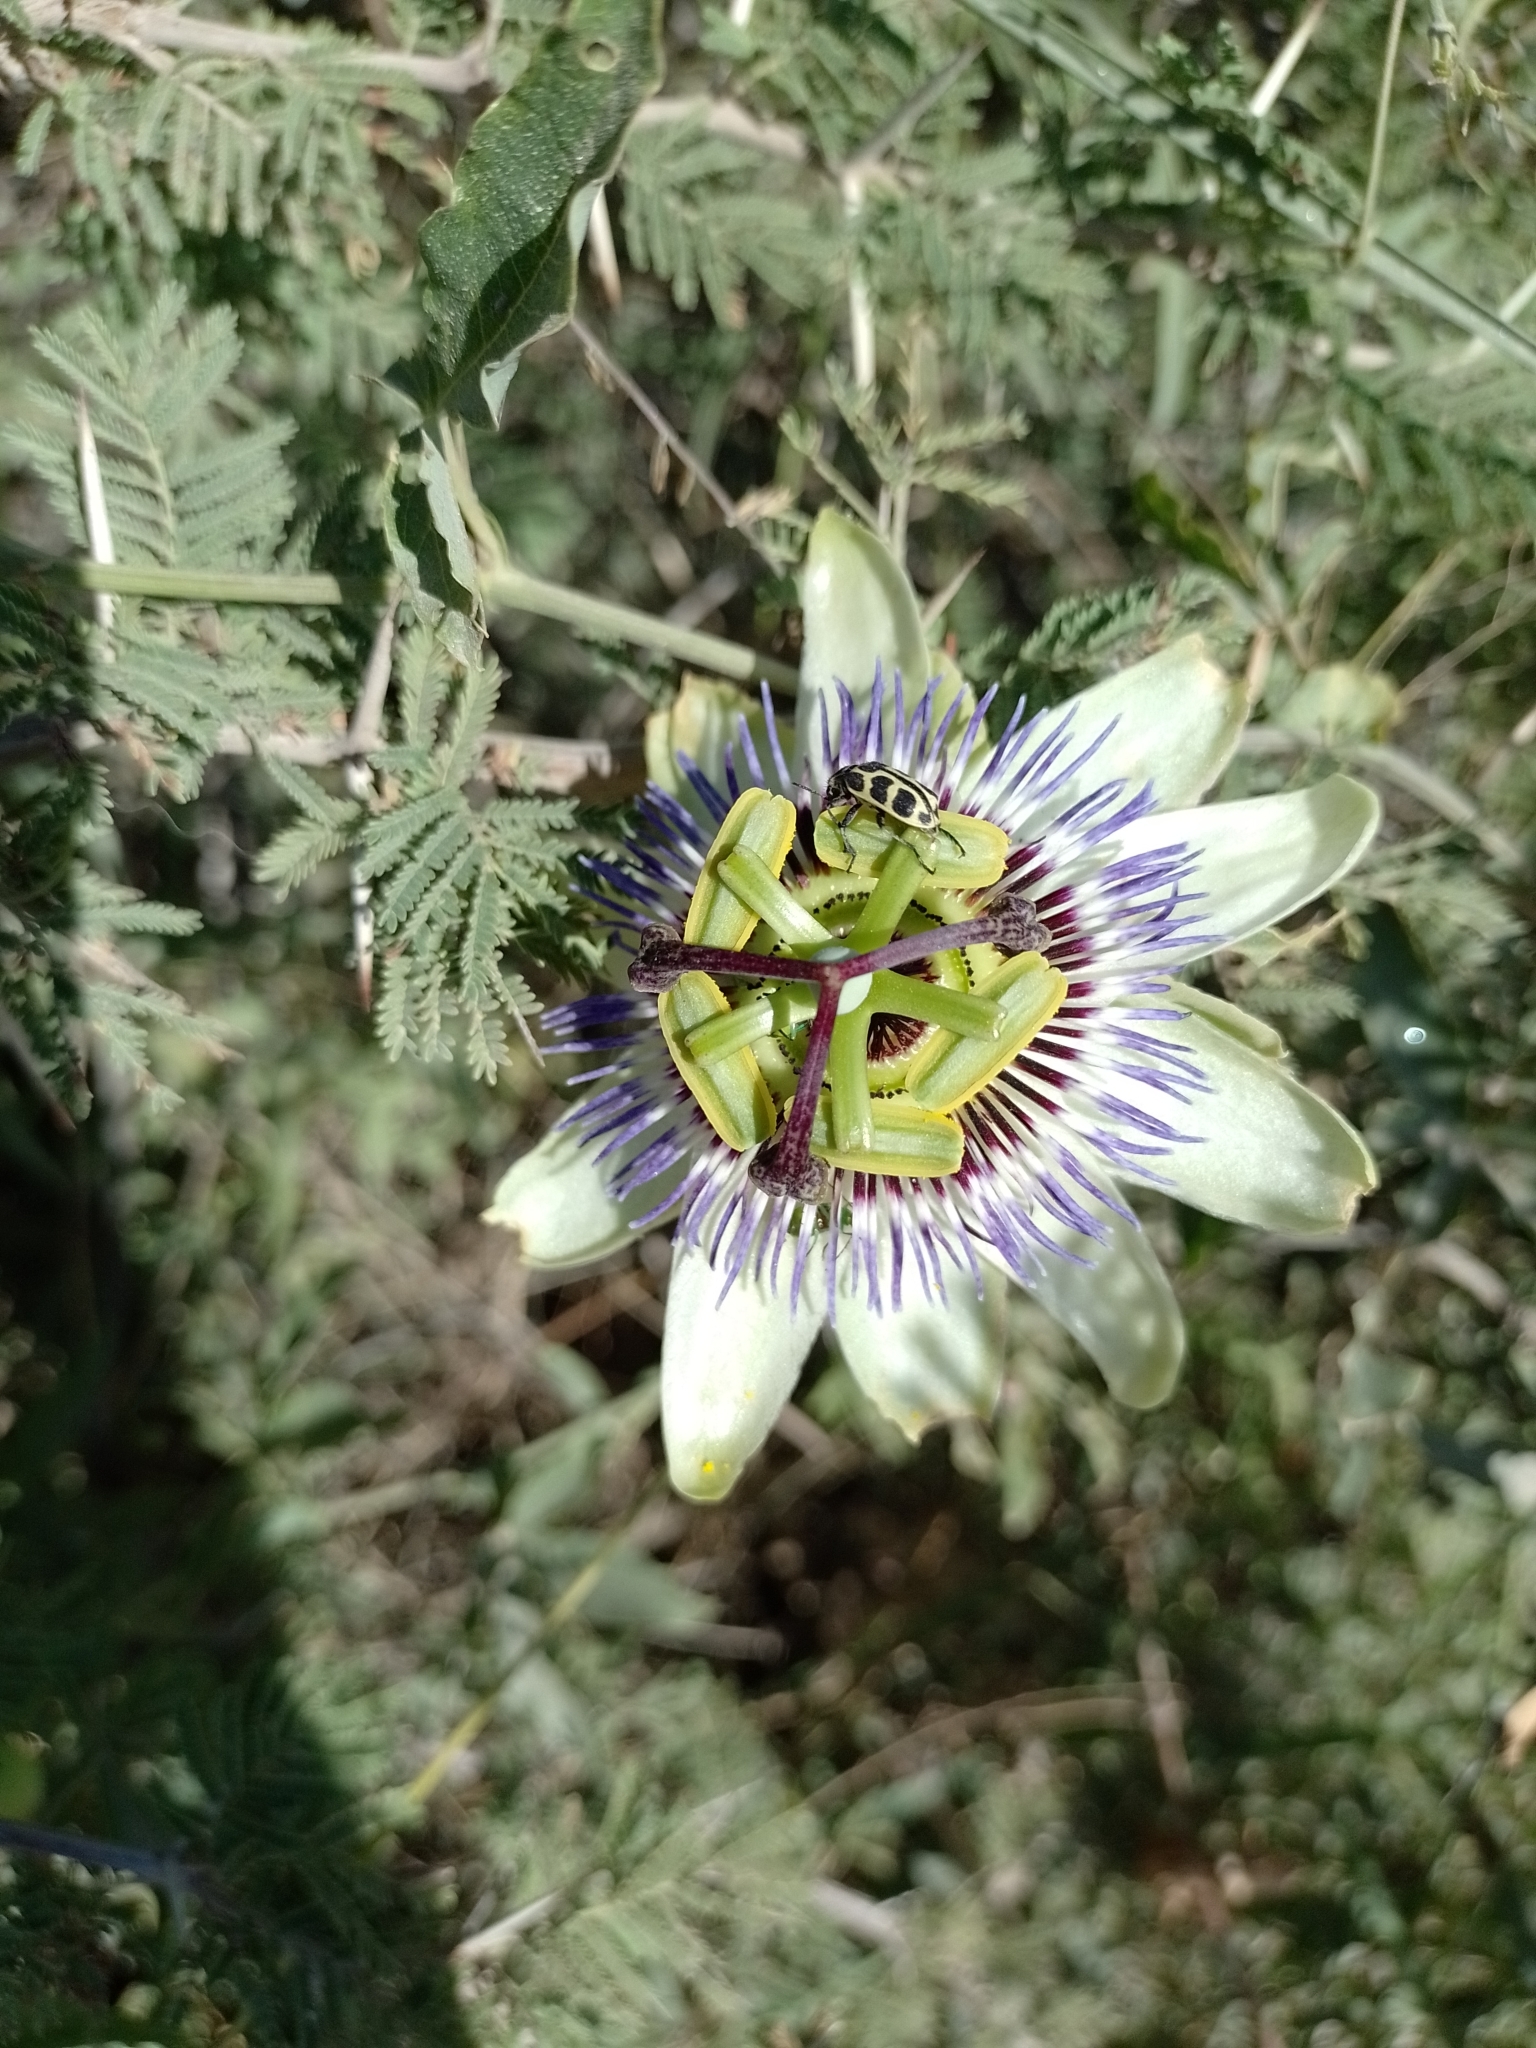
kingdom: Animalia
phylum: Arthropoda
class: Insecta
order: Coleoptera
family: Melyridae
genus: Astylus
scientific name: Astylus atromaculatus
